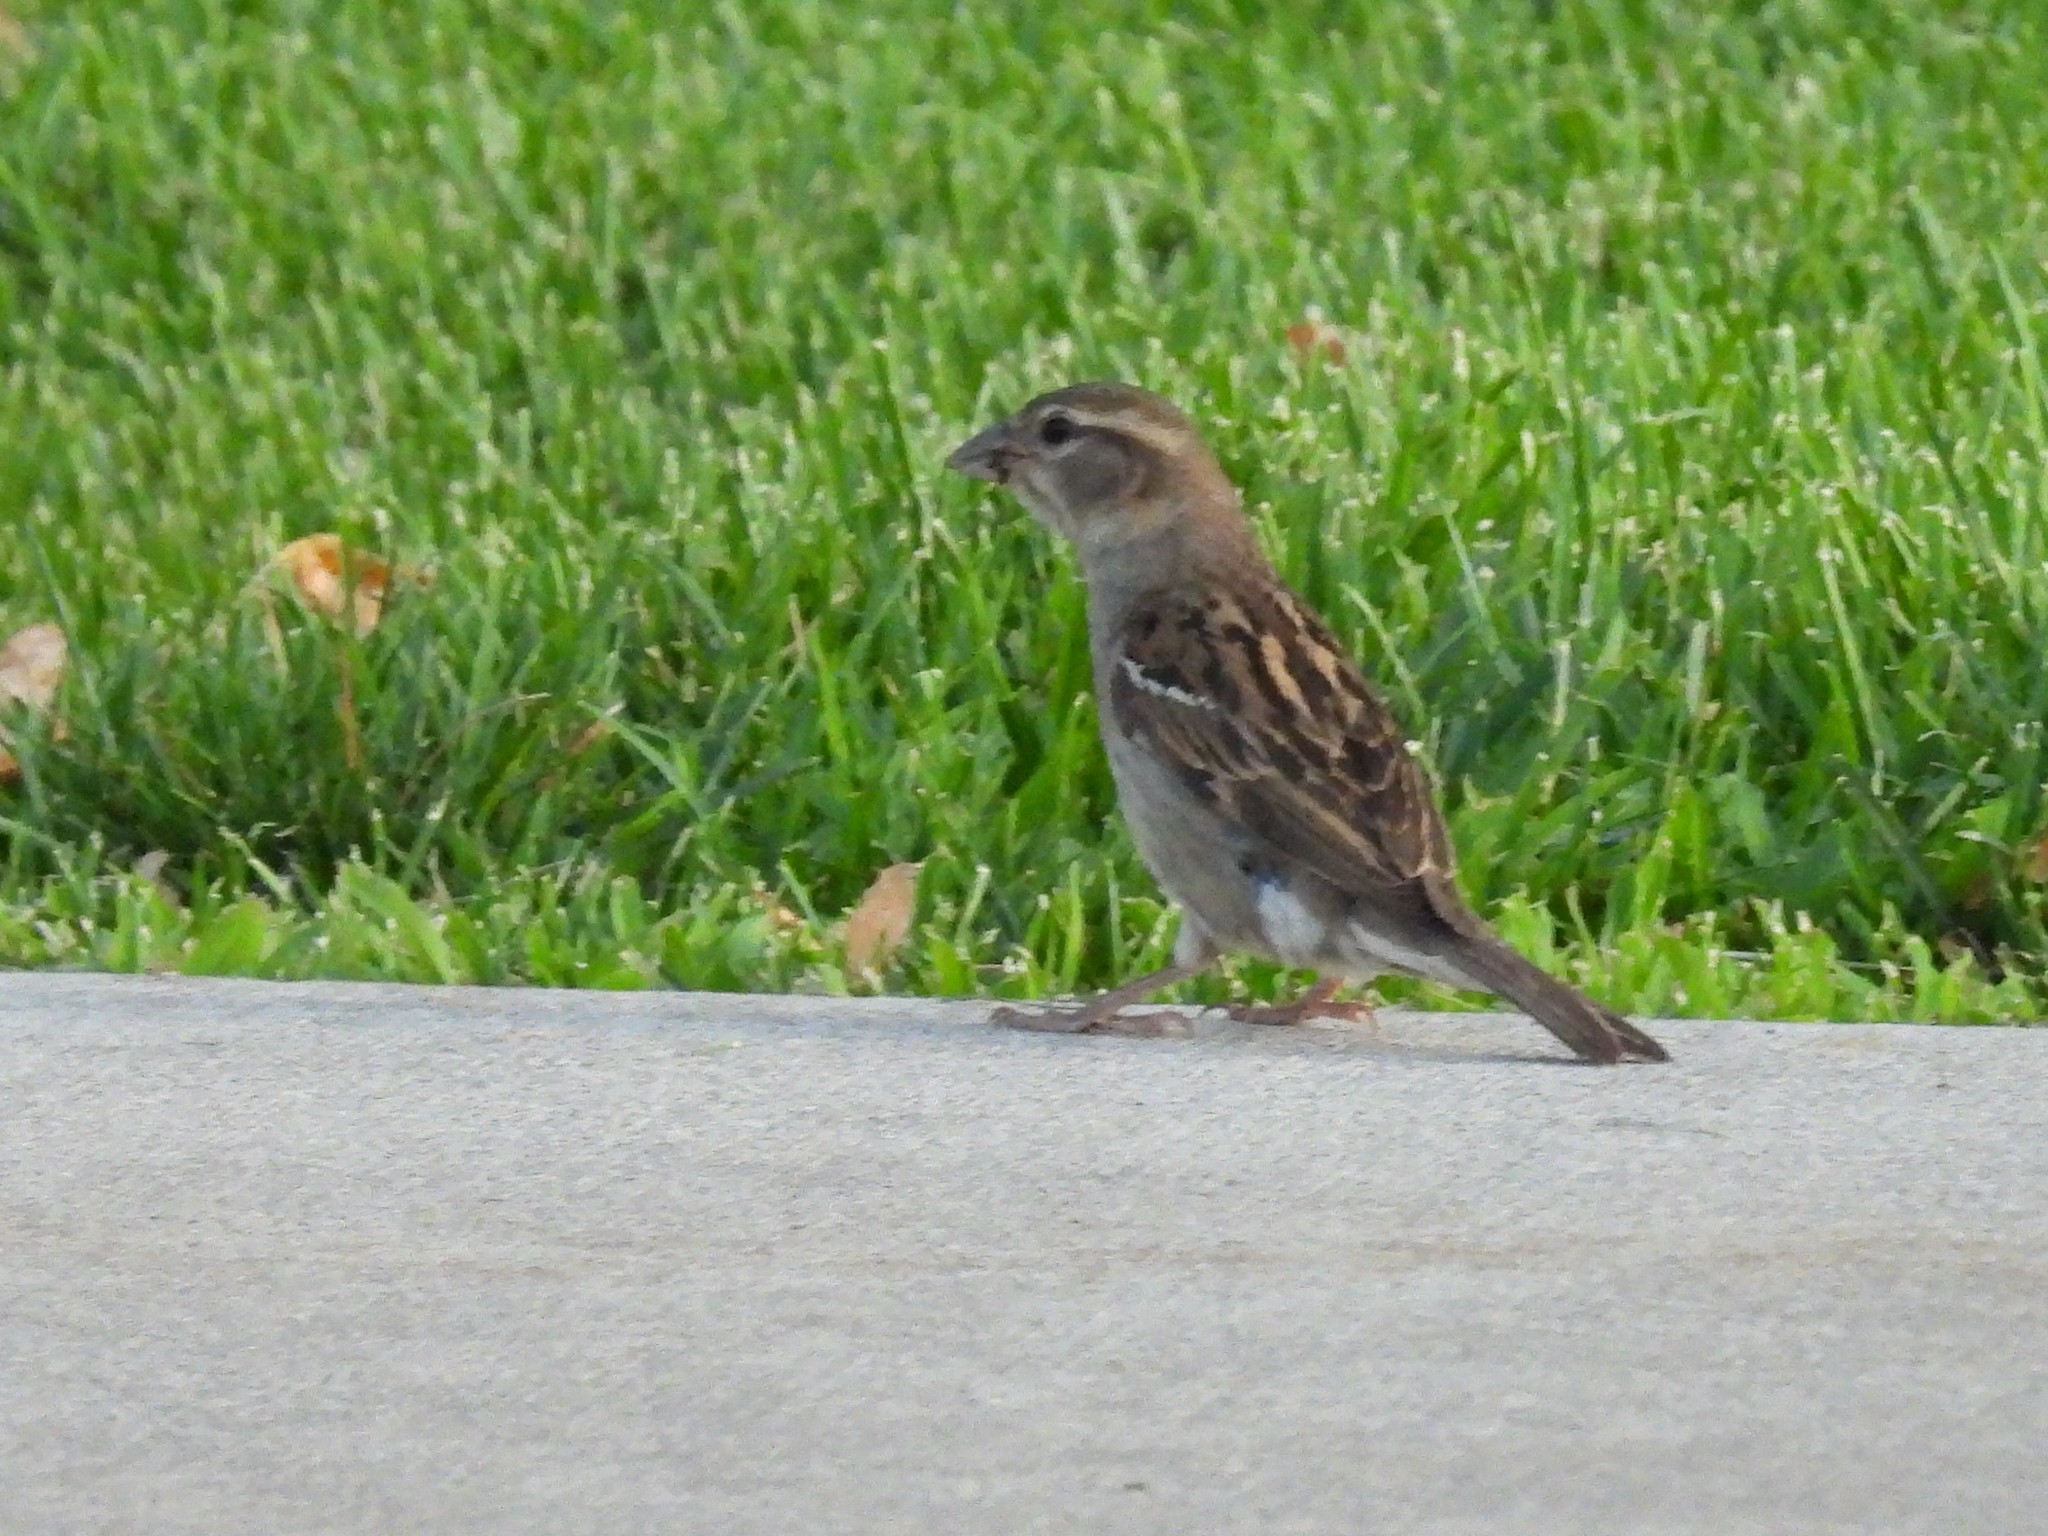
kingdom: Animalia
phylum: Chordata
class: Aves
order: Passeriformes
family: Passeridae
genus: Passer
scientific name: Passer domesticus
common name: House sparrow
